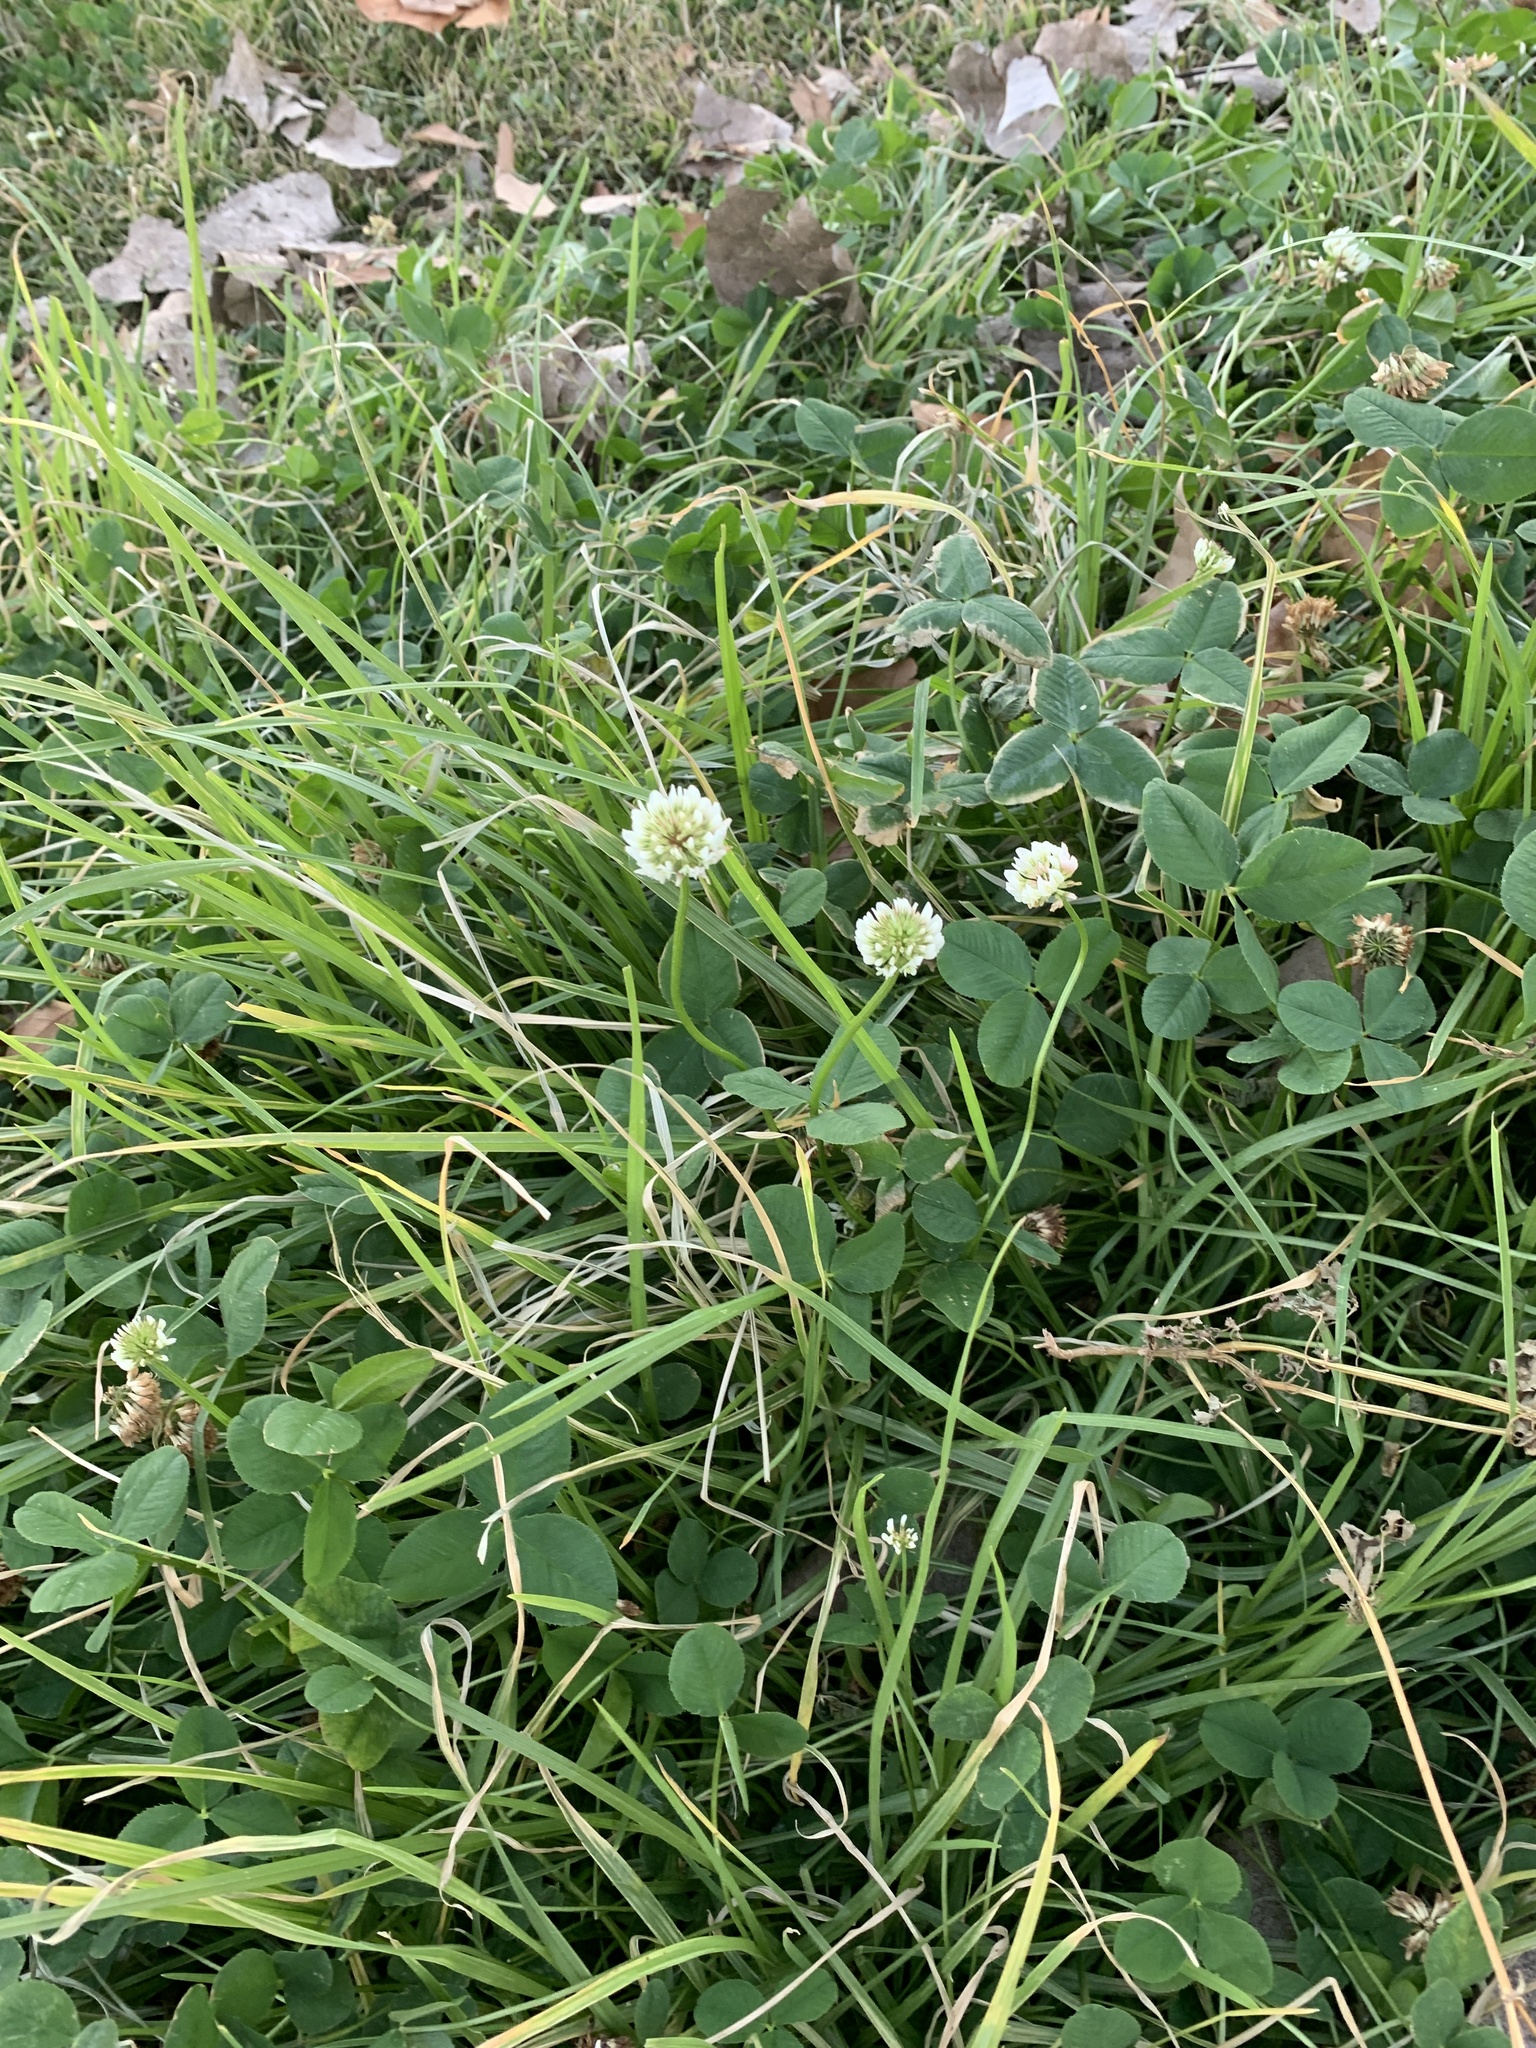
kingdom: Plantae
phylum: Tracheophyta
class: Magnoliopsida
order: Fabales
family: Fabaceae
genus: Trifolium
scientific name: Trifolium repens
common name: White clover
